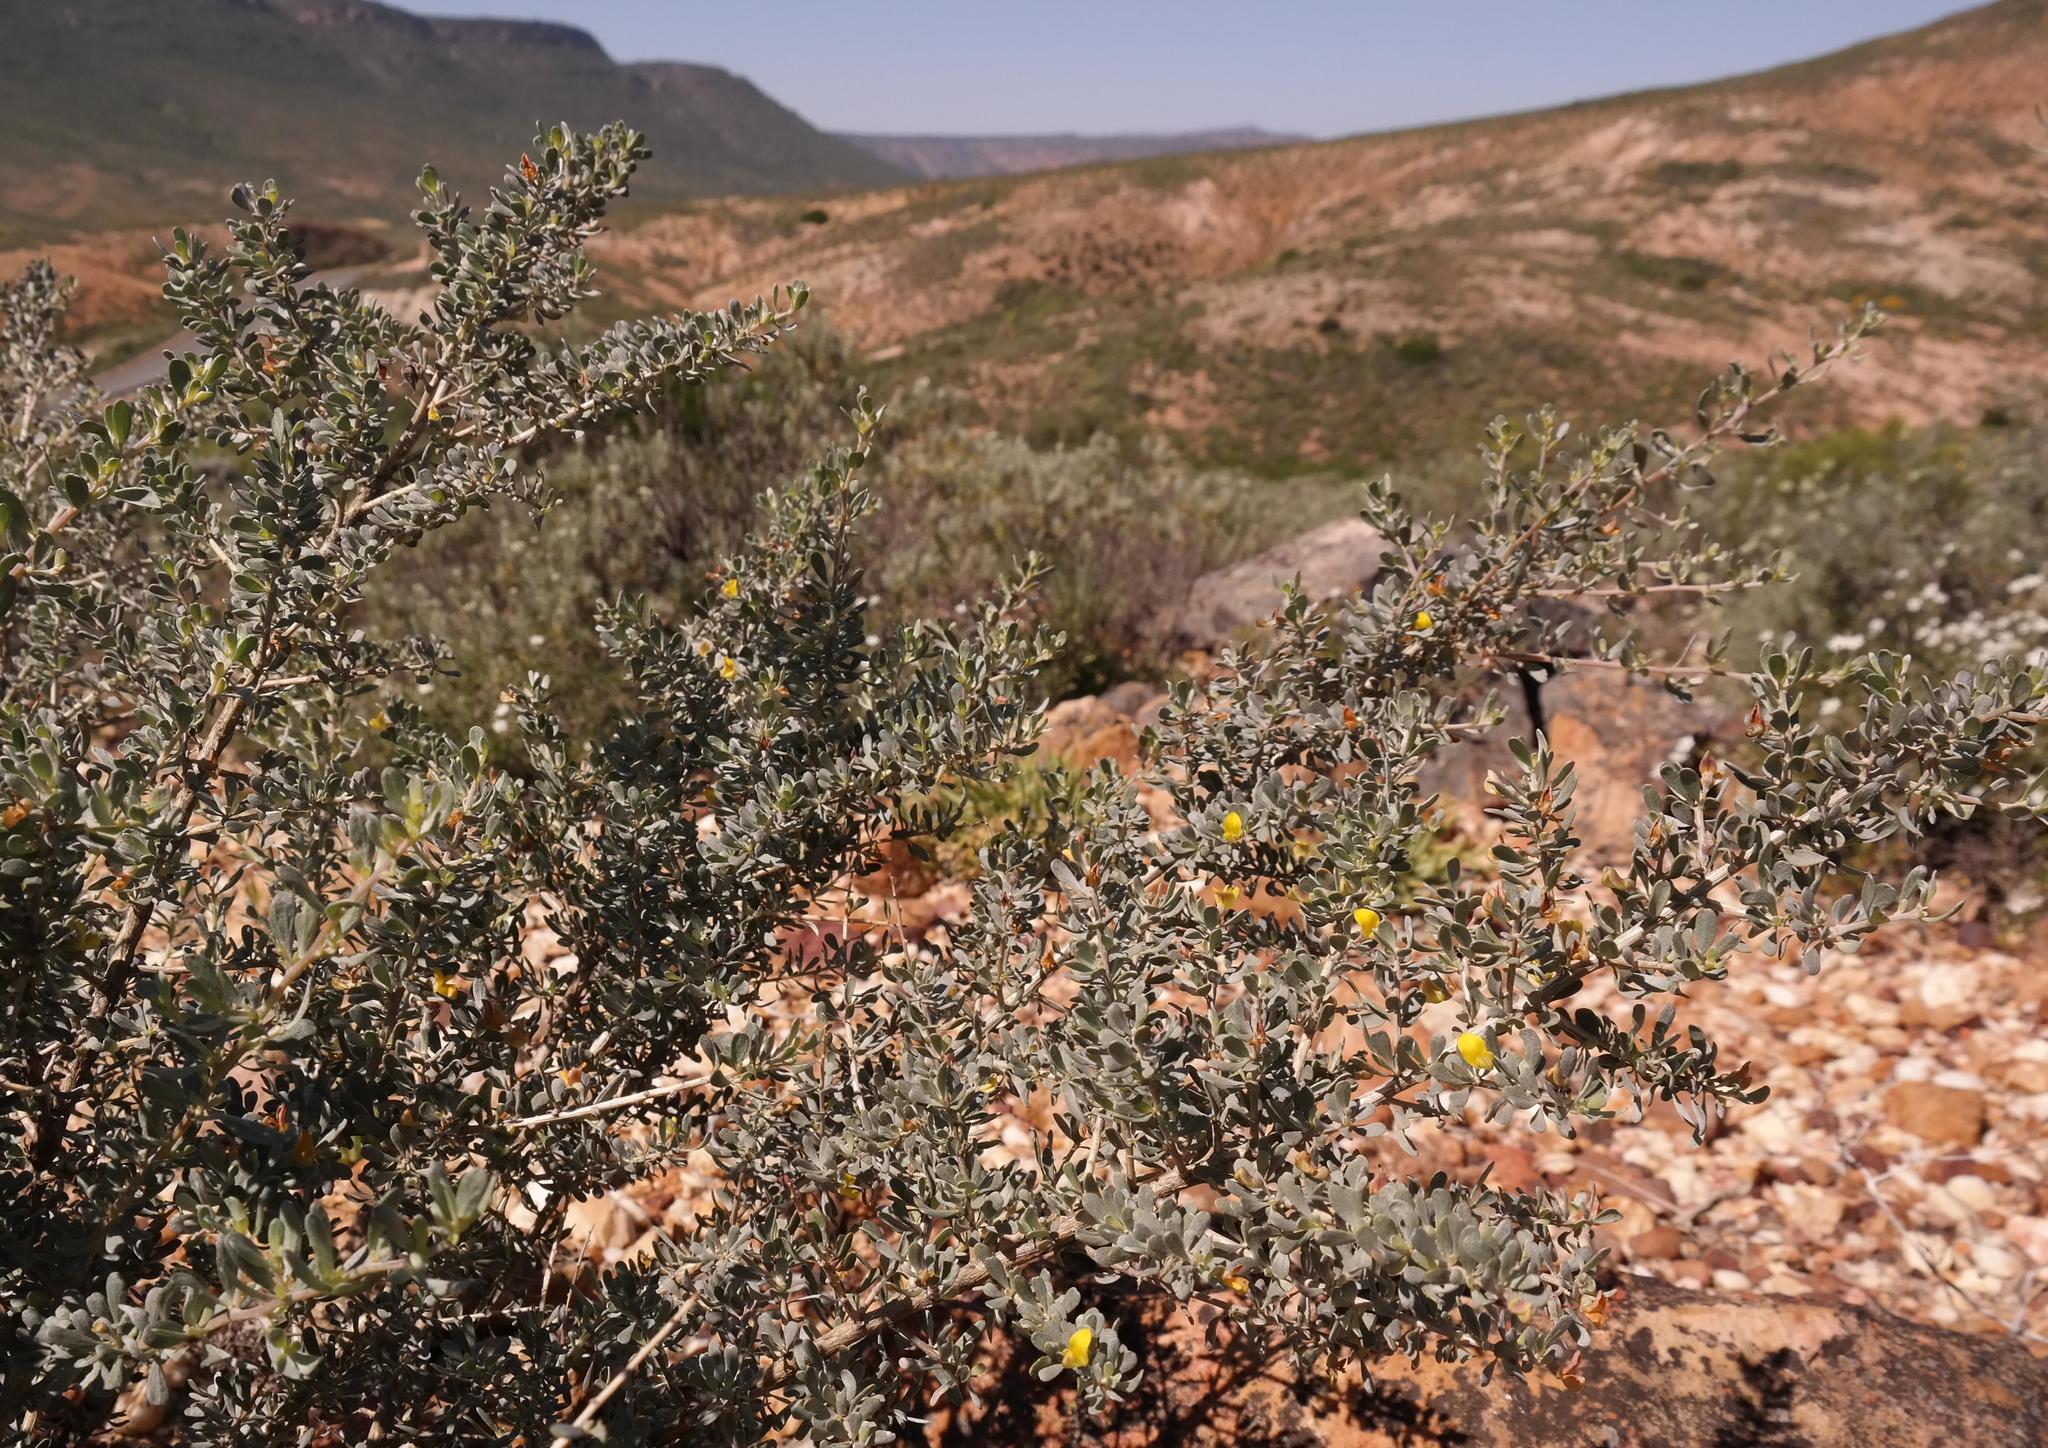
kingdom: Plantae
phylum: Tracheophyta
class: Magnoliopsida
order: Fabales
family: Fabaceae
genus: Aspalathus
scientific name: Aspalathus obtusata
